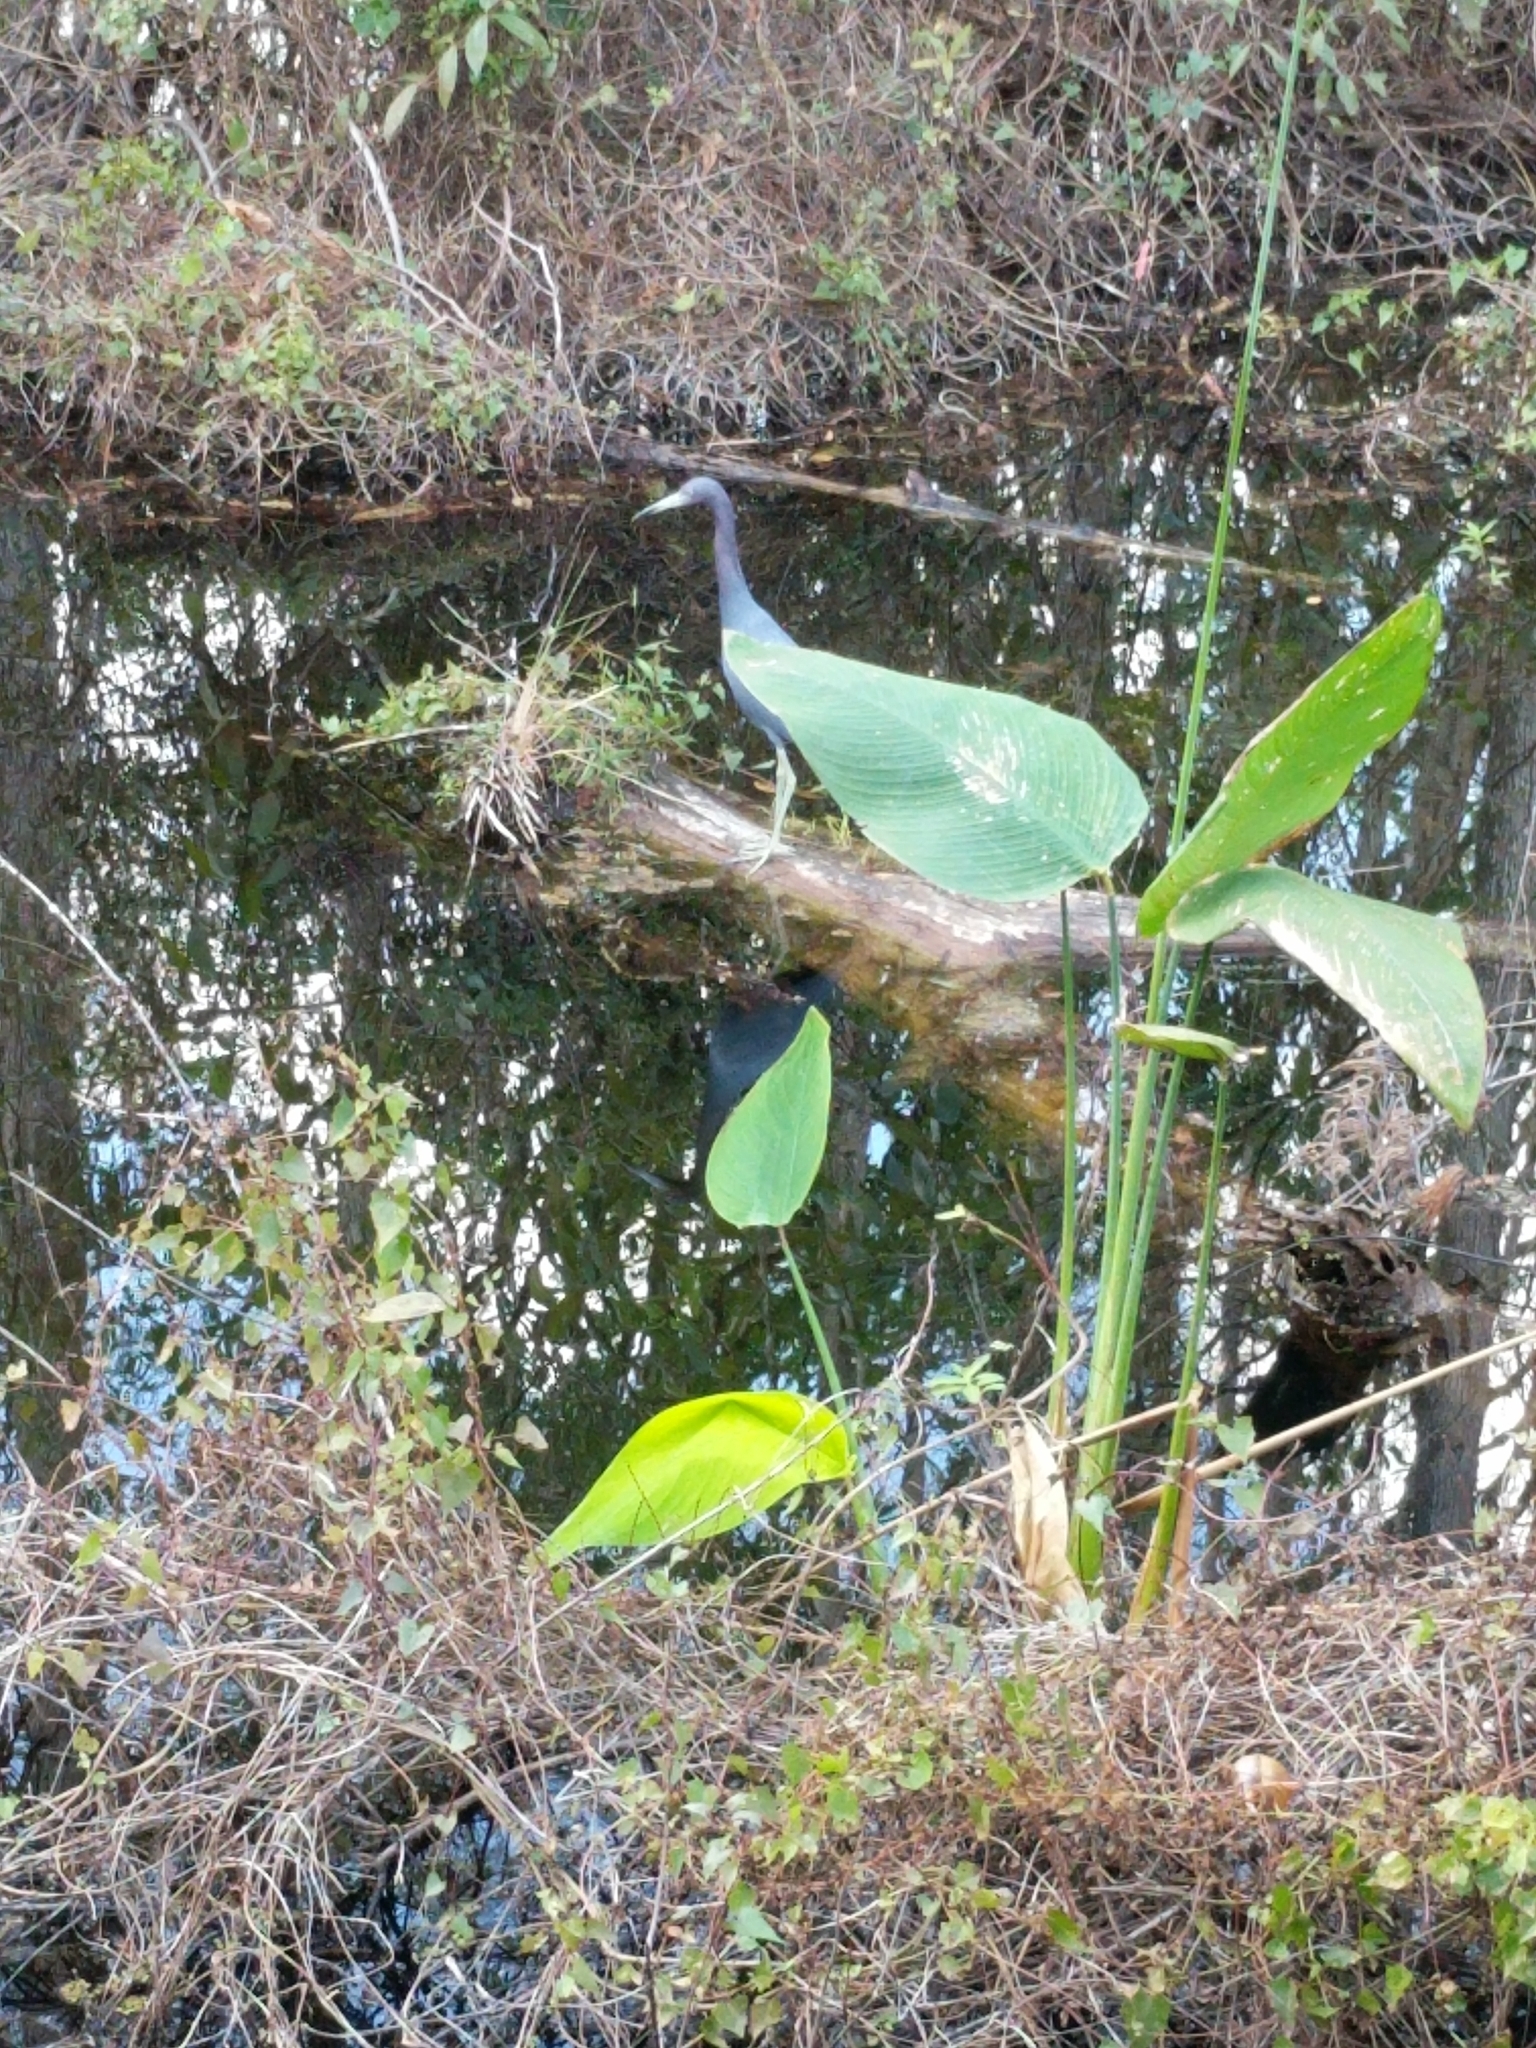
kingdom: Animalia
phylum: Chordata
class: Aves
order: Pelecaniformes
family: Ardeidae
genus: Egretta
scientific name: Egretta caerulea
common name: Little blue heron
